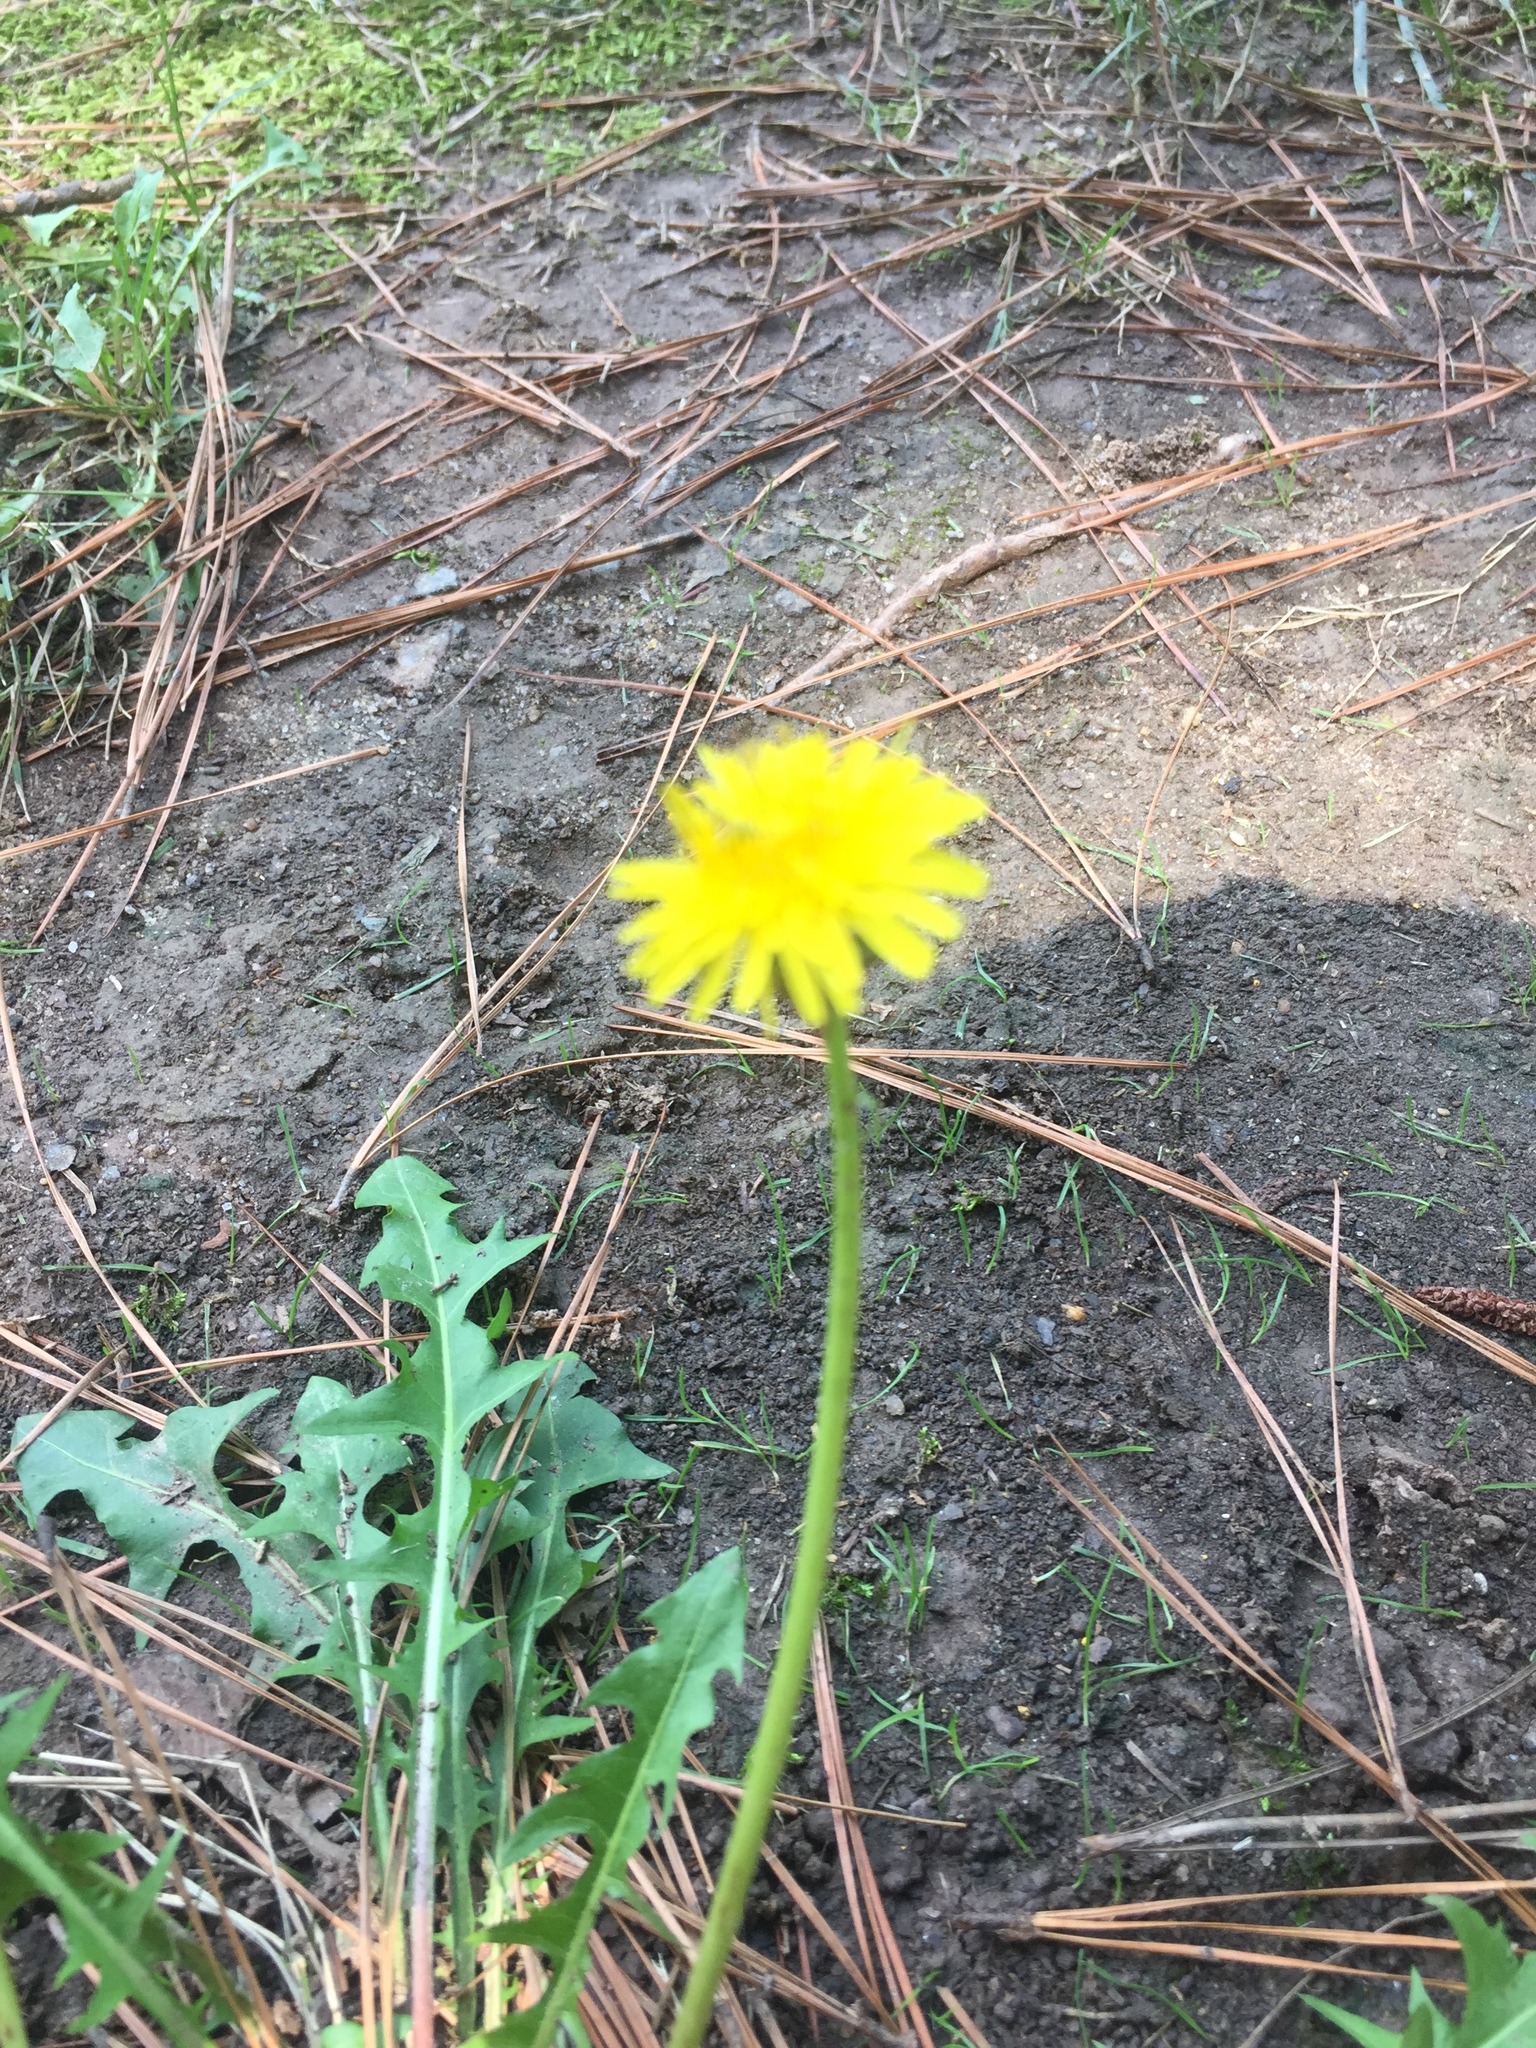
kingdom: Plantae
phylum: Tracheophyta
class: Magnoliopsida
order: Asterales
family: Asteraceae
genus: Taraxacum
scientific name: Taraxacum officinale
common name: Common dandelion
